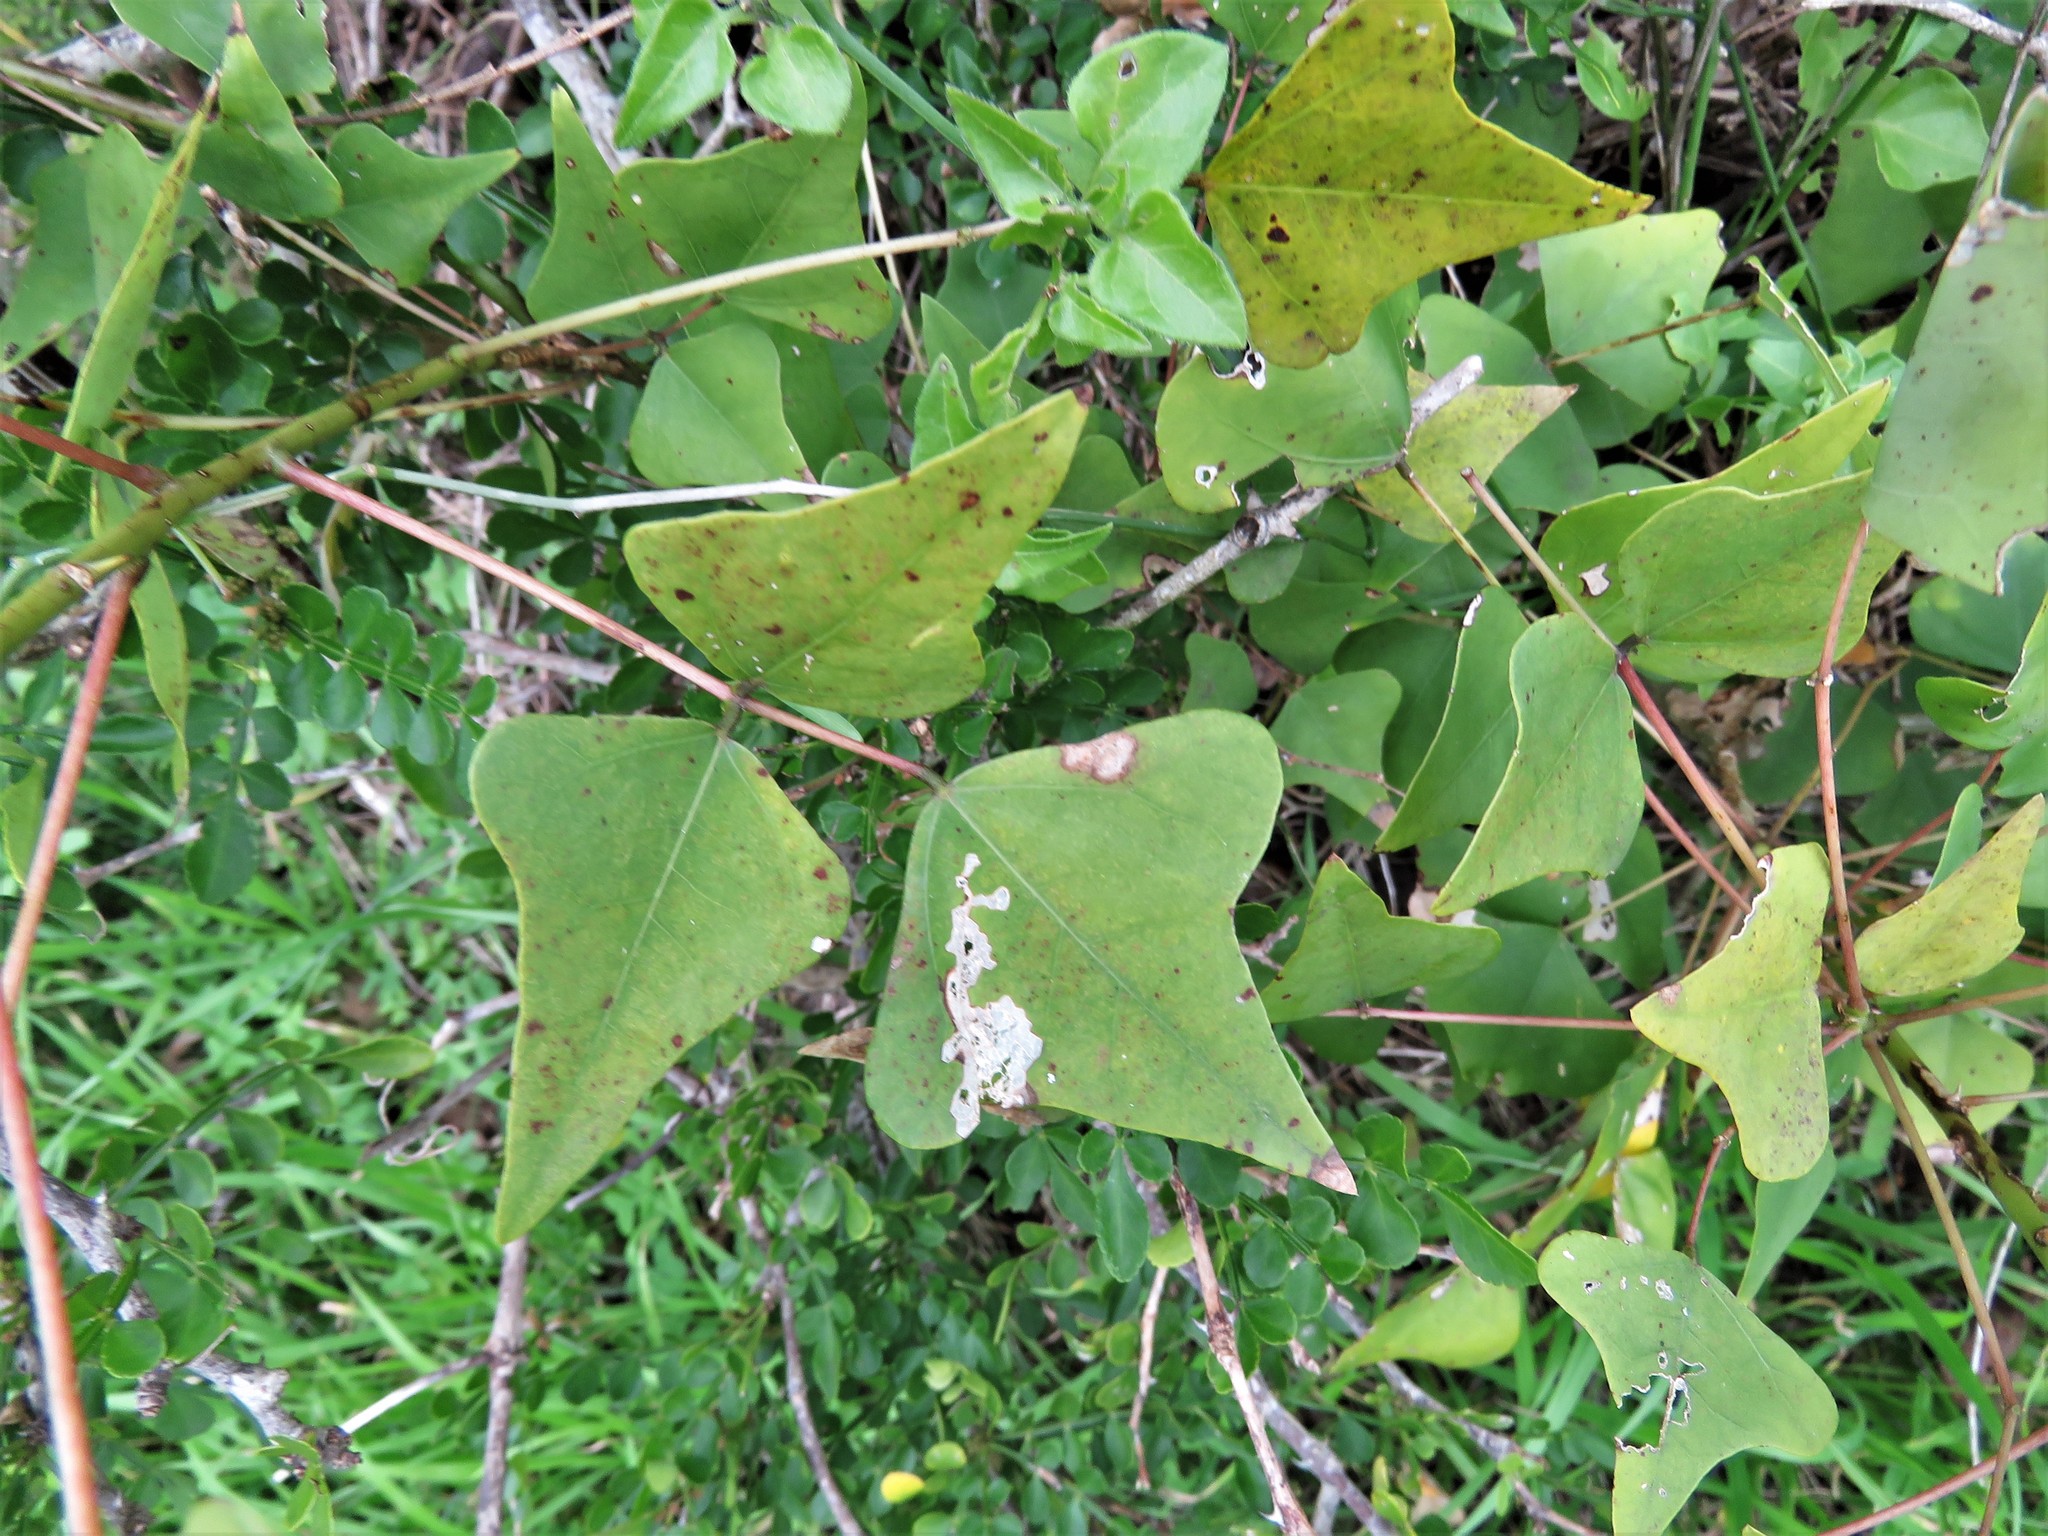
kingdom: Plantae
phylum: Tracheophyta
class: Magnoliopsida
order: Fabales
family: Fabaceae
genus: Erythrina
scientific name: Erythrina herbacea
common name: Coral-bean
